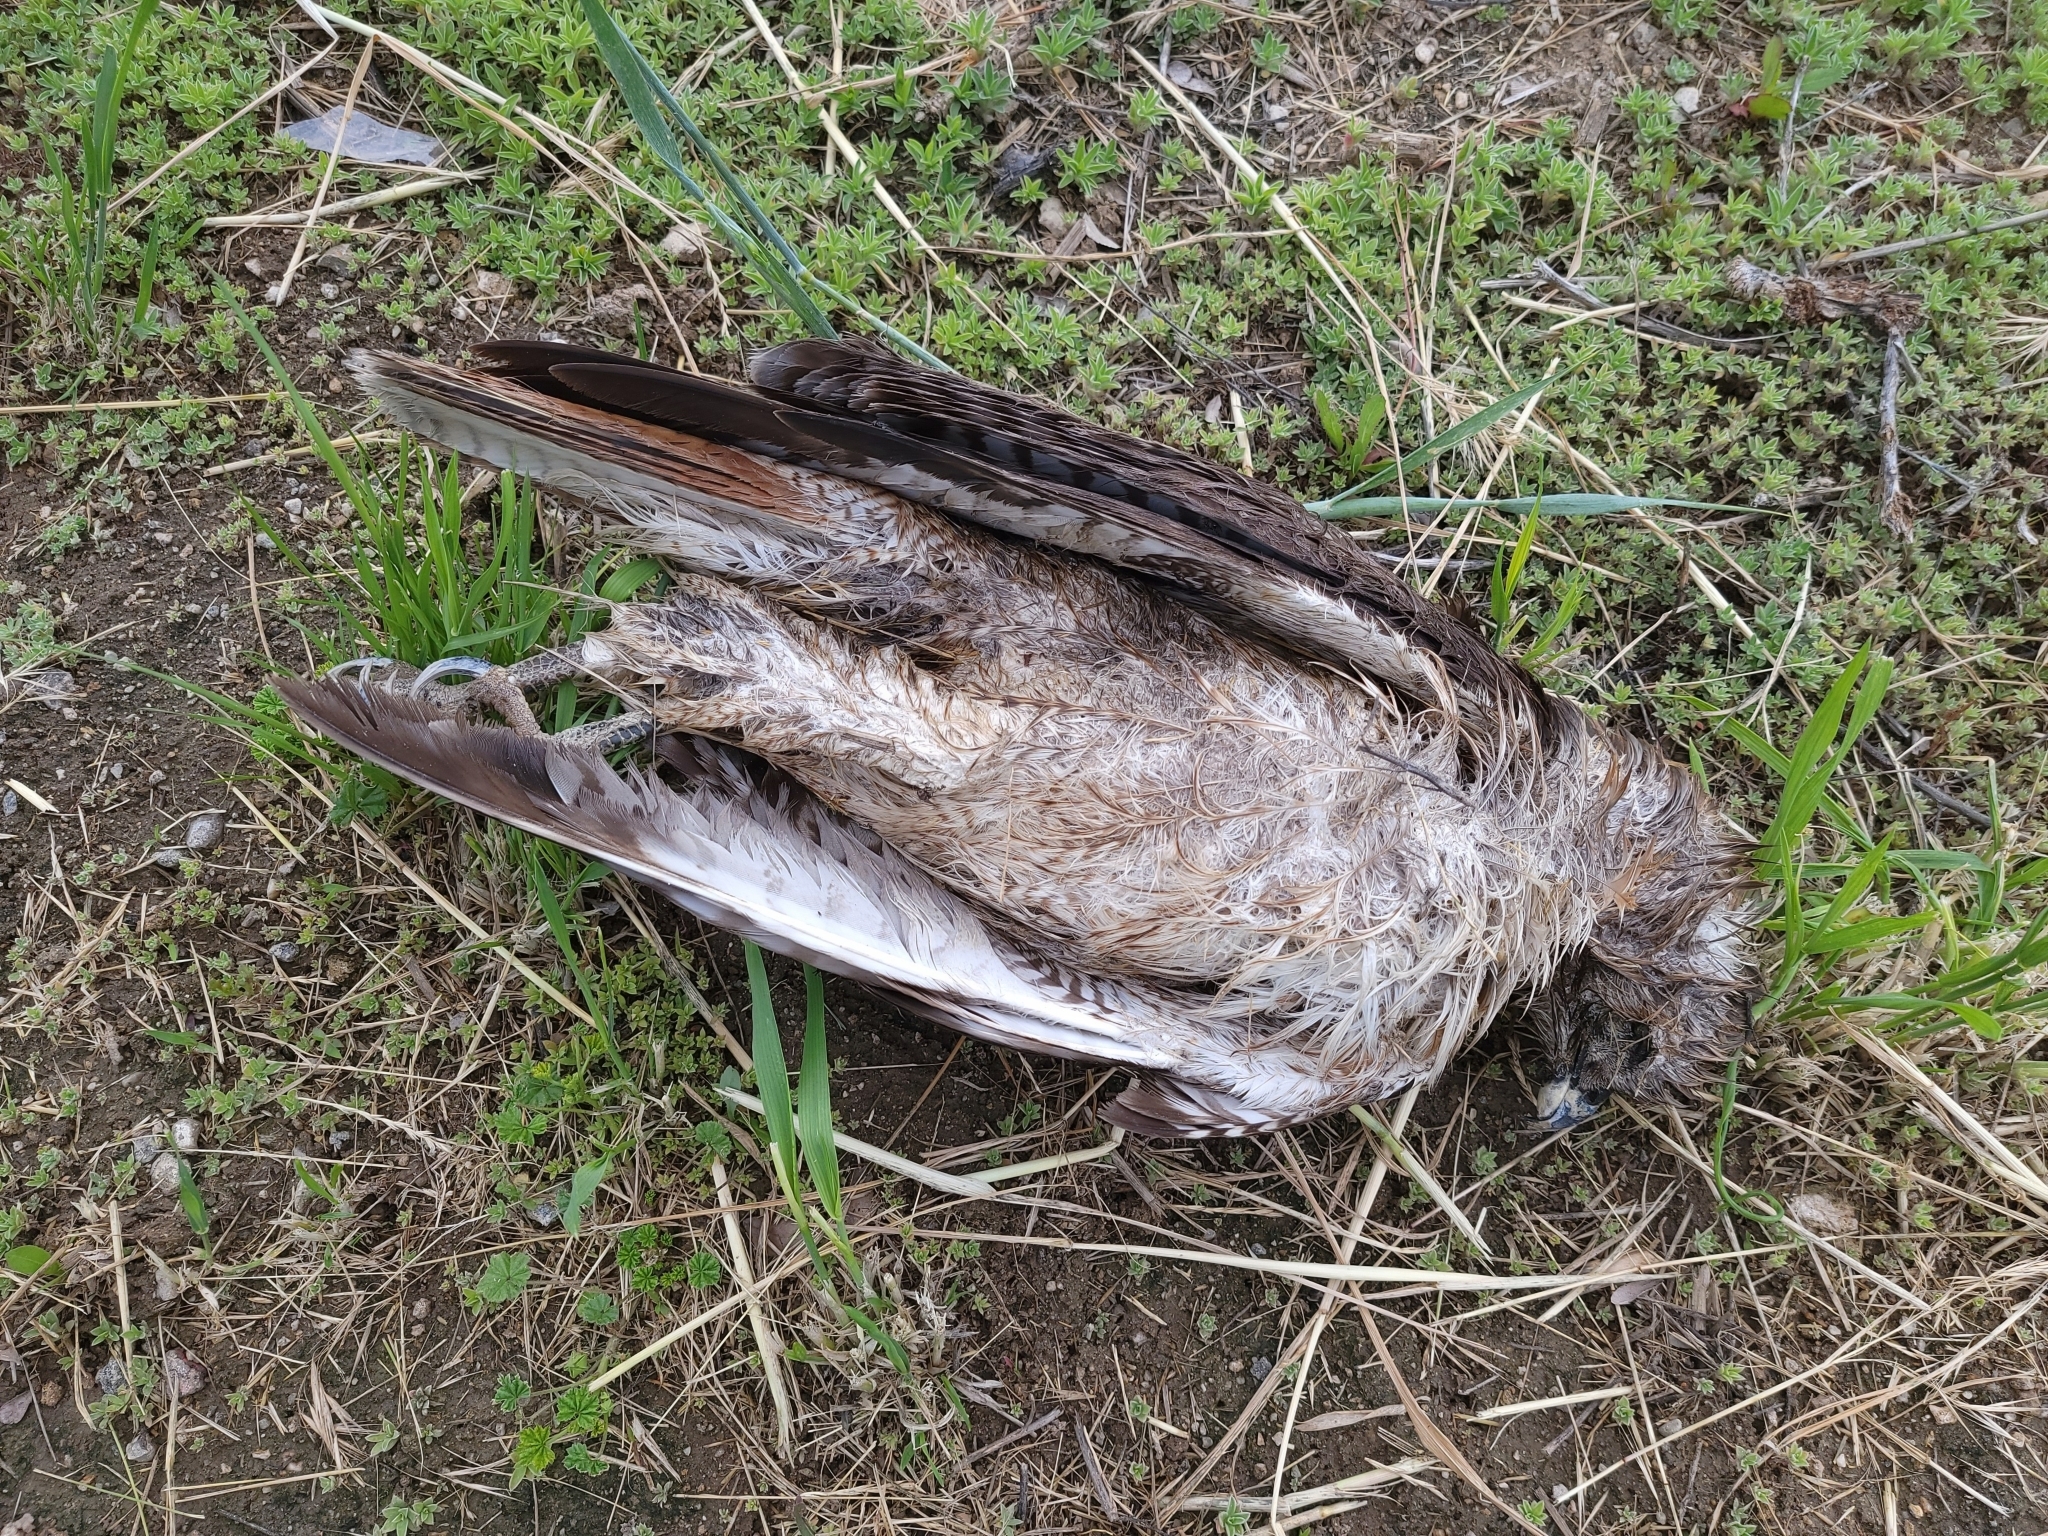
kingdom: Animalia
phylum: Chordata
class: Aves
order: Accipitriformes
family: Accipitridae
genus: Buteo
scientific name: Buteo jamaicensis
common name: Red-tailed hawk
